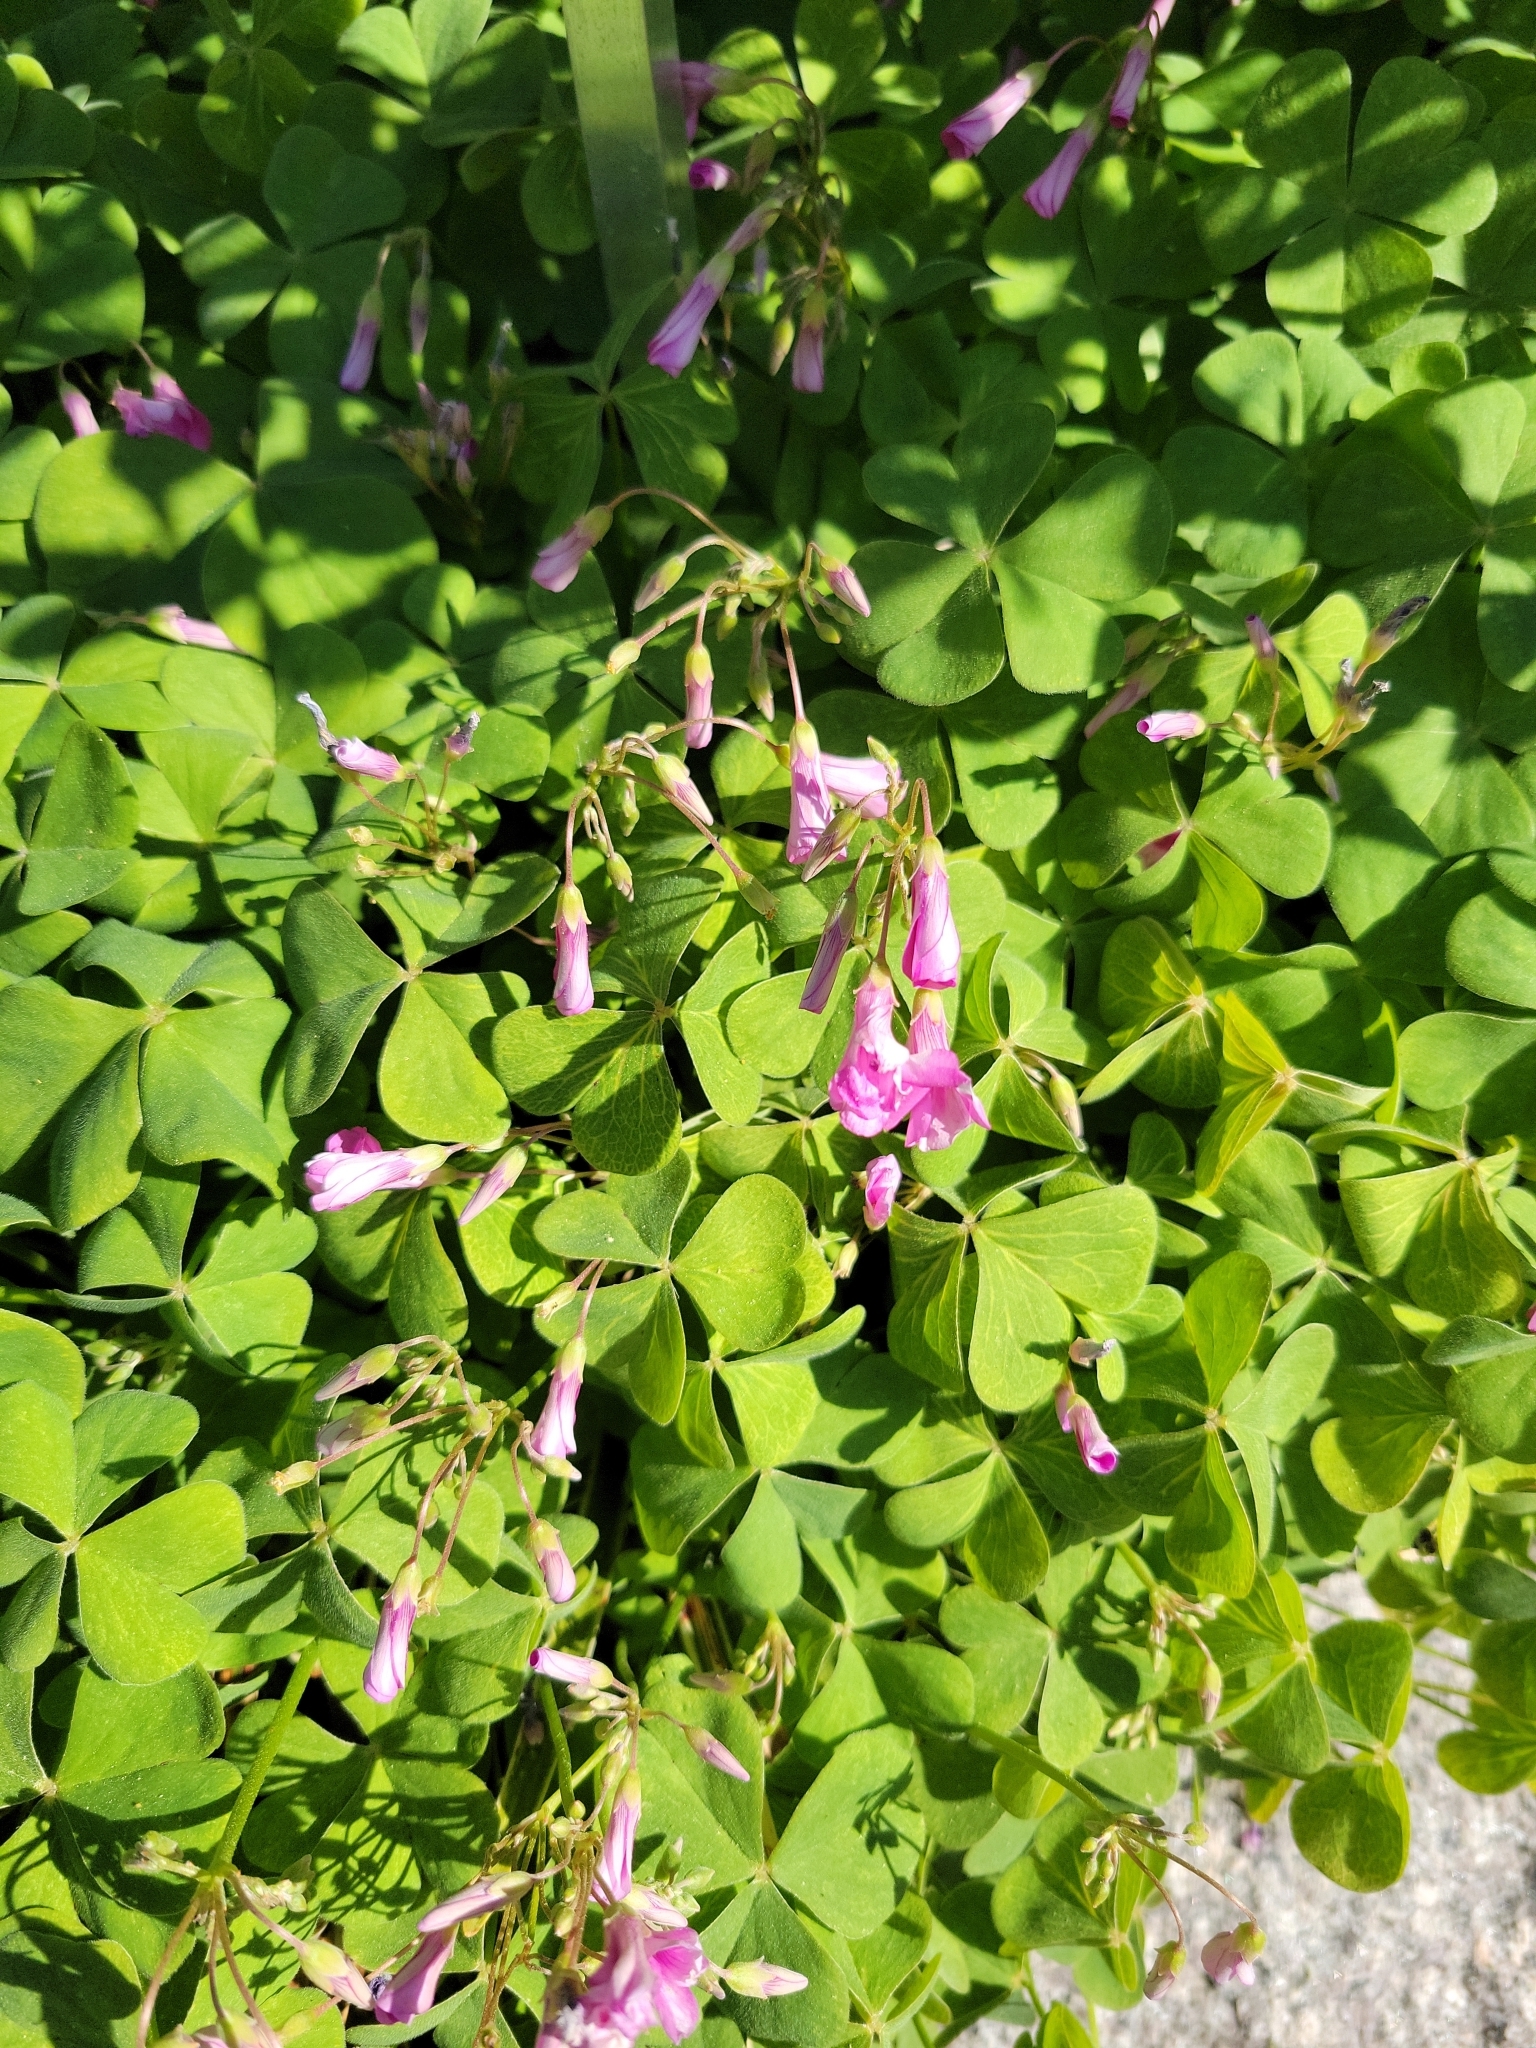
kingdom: Plantae
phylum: Tracheophyta
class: Magnoliopsida
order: Oxalidales
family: Oxalidaceae
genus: Oxalis
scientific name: Oxalis articulata
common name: Pink-sorrel
